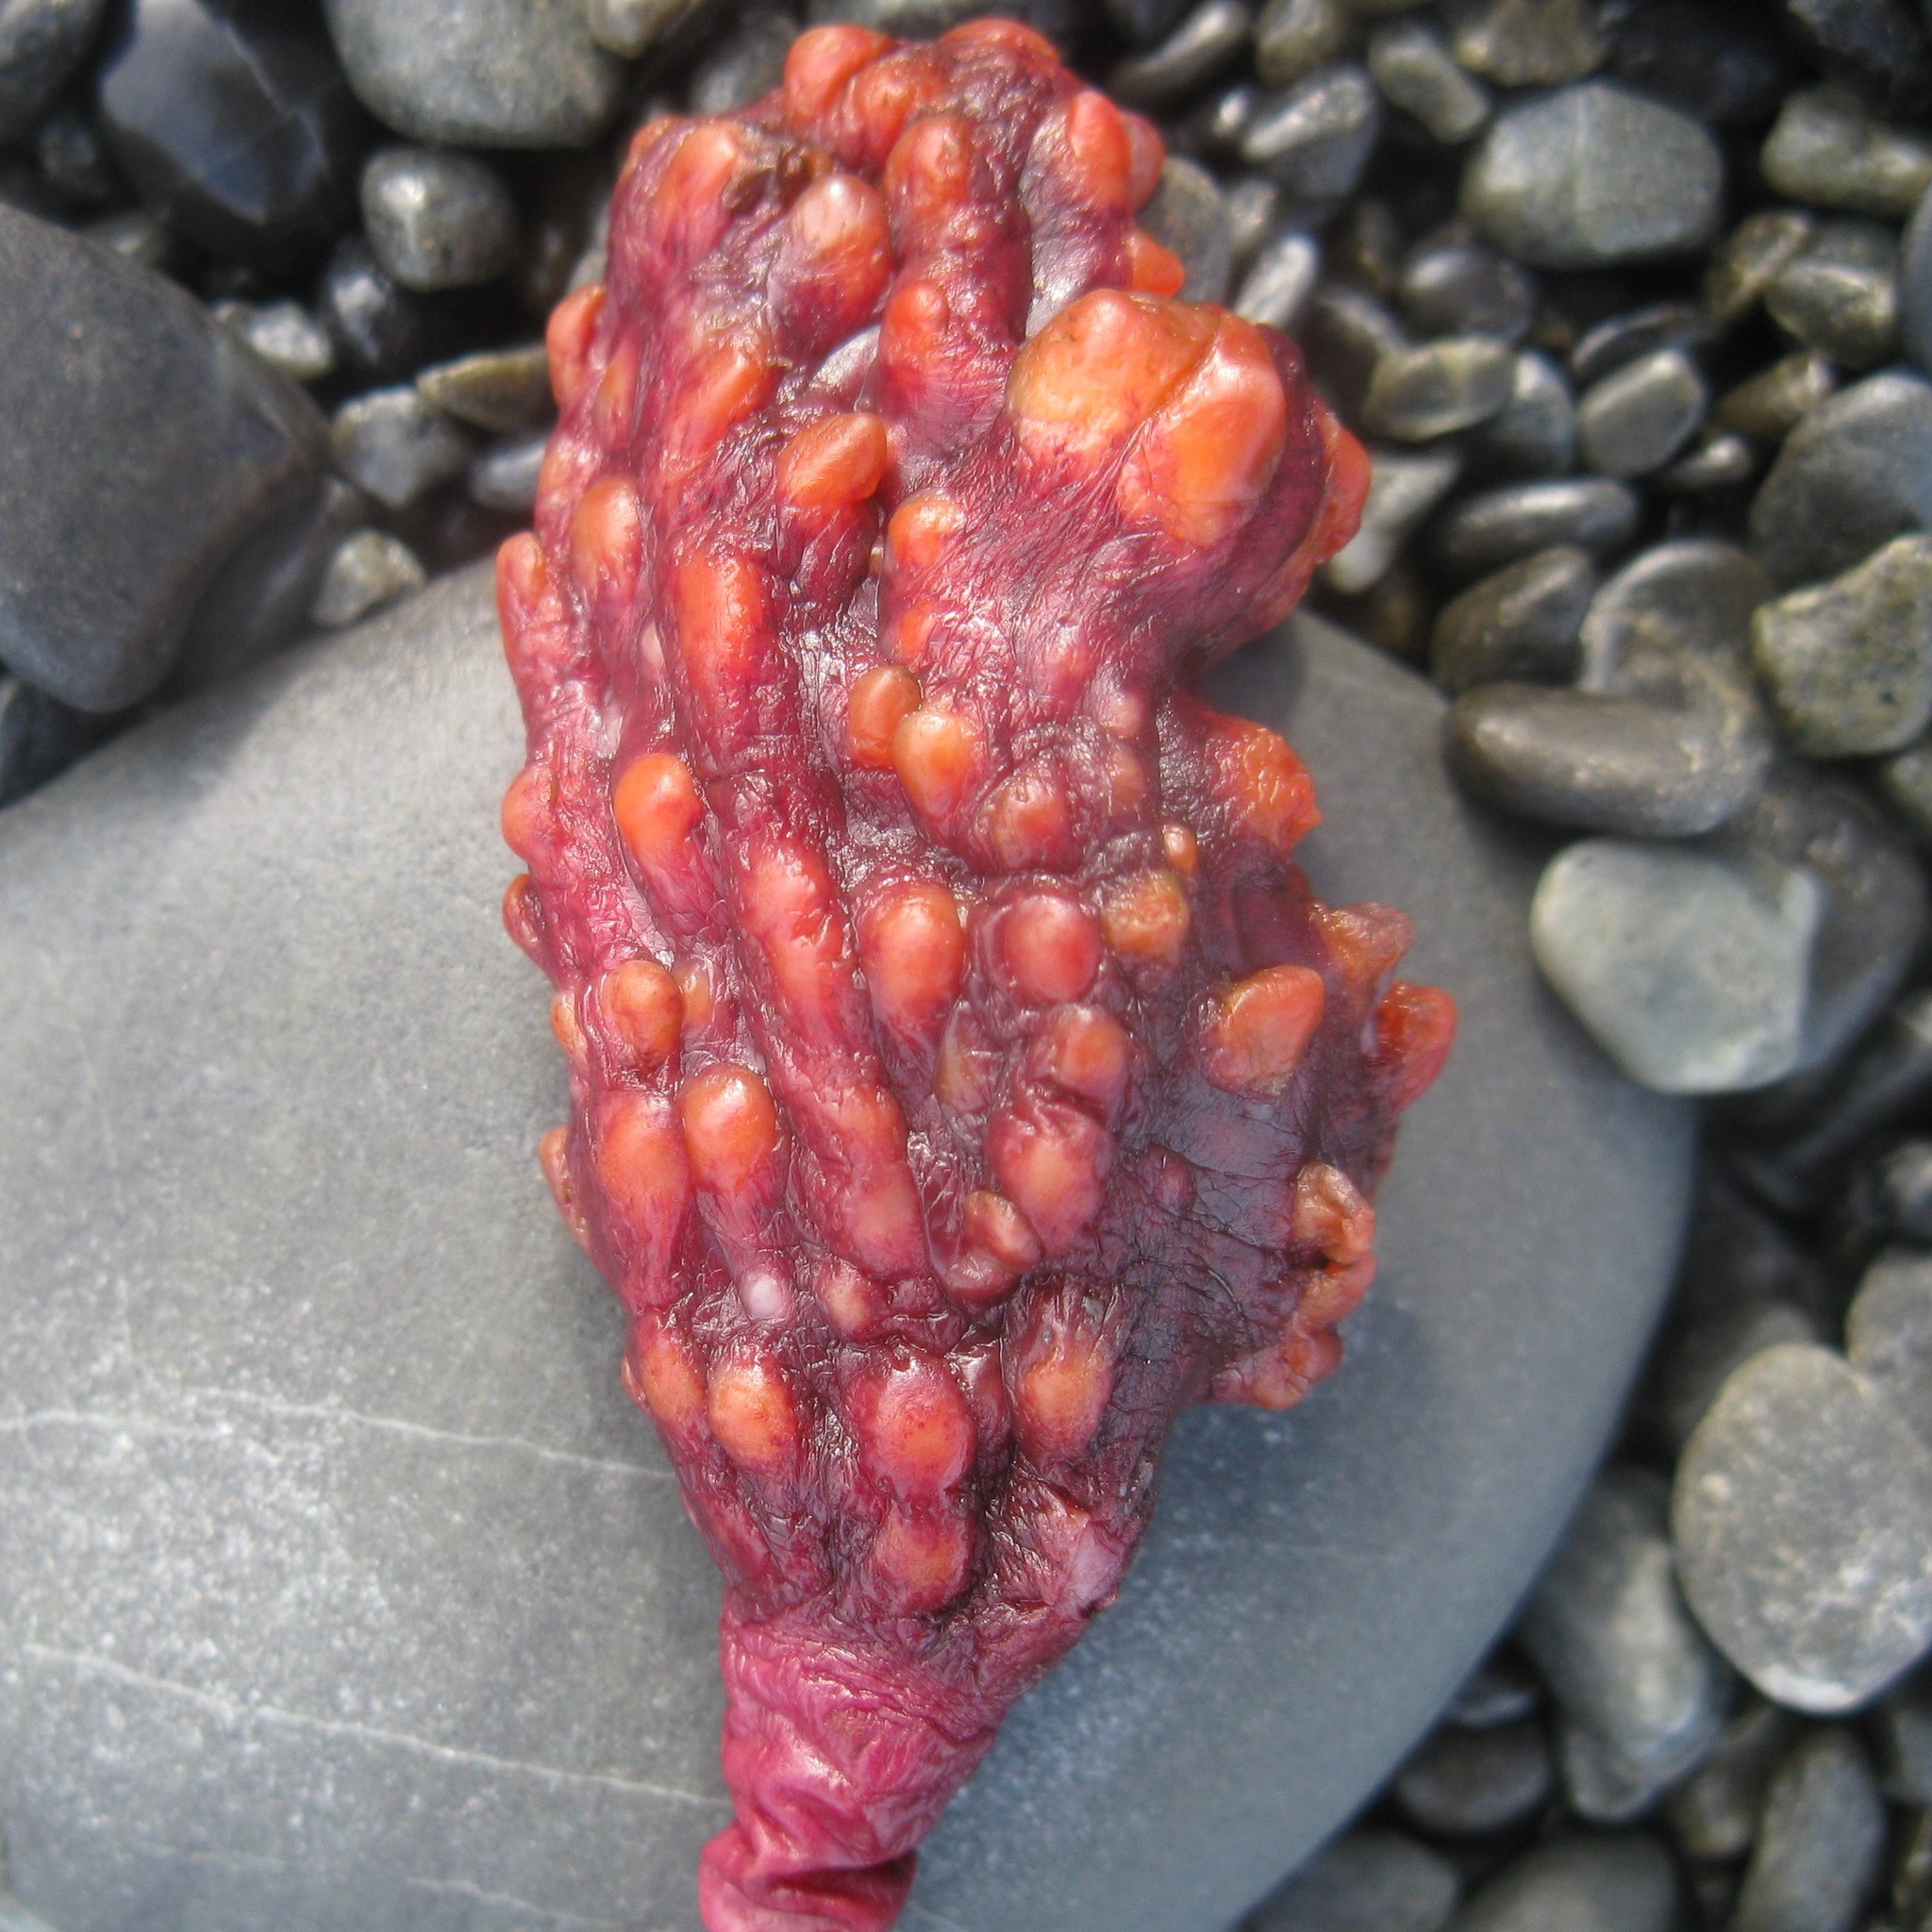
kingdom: Animalia
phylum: Chordata
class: Ascidiacea
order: Stolidobranchia
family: Pyuridae
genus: Pyura
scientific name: Pyura pachydermatina
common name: Sea tulip
